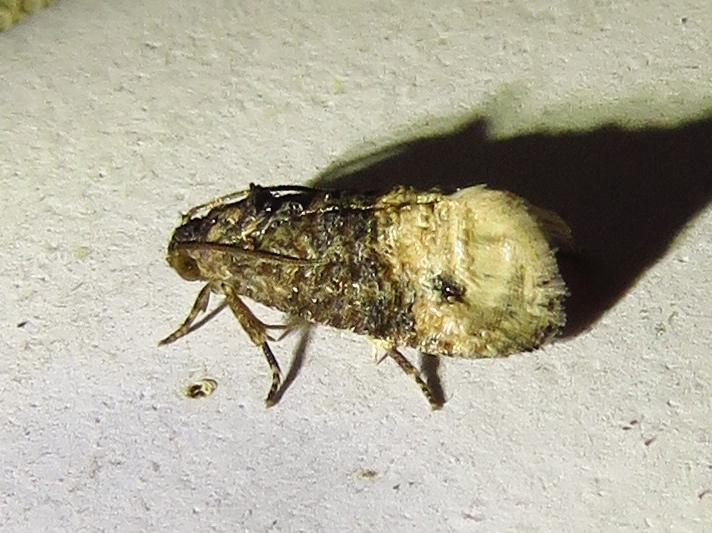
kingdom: Animalia
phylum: Arthropoda
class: Insecta
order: Lepidoptera
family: Tortricidae
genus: Ecdytolopha
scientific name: Ecdytolopha mana
